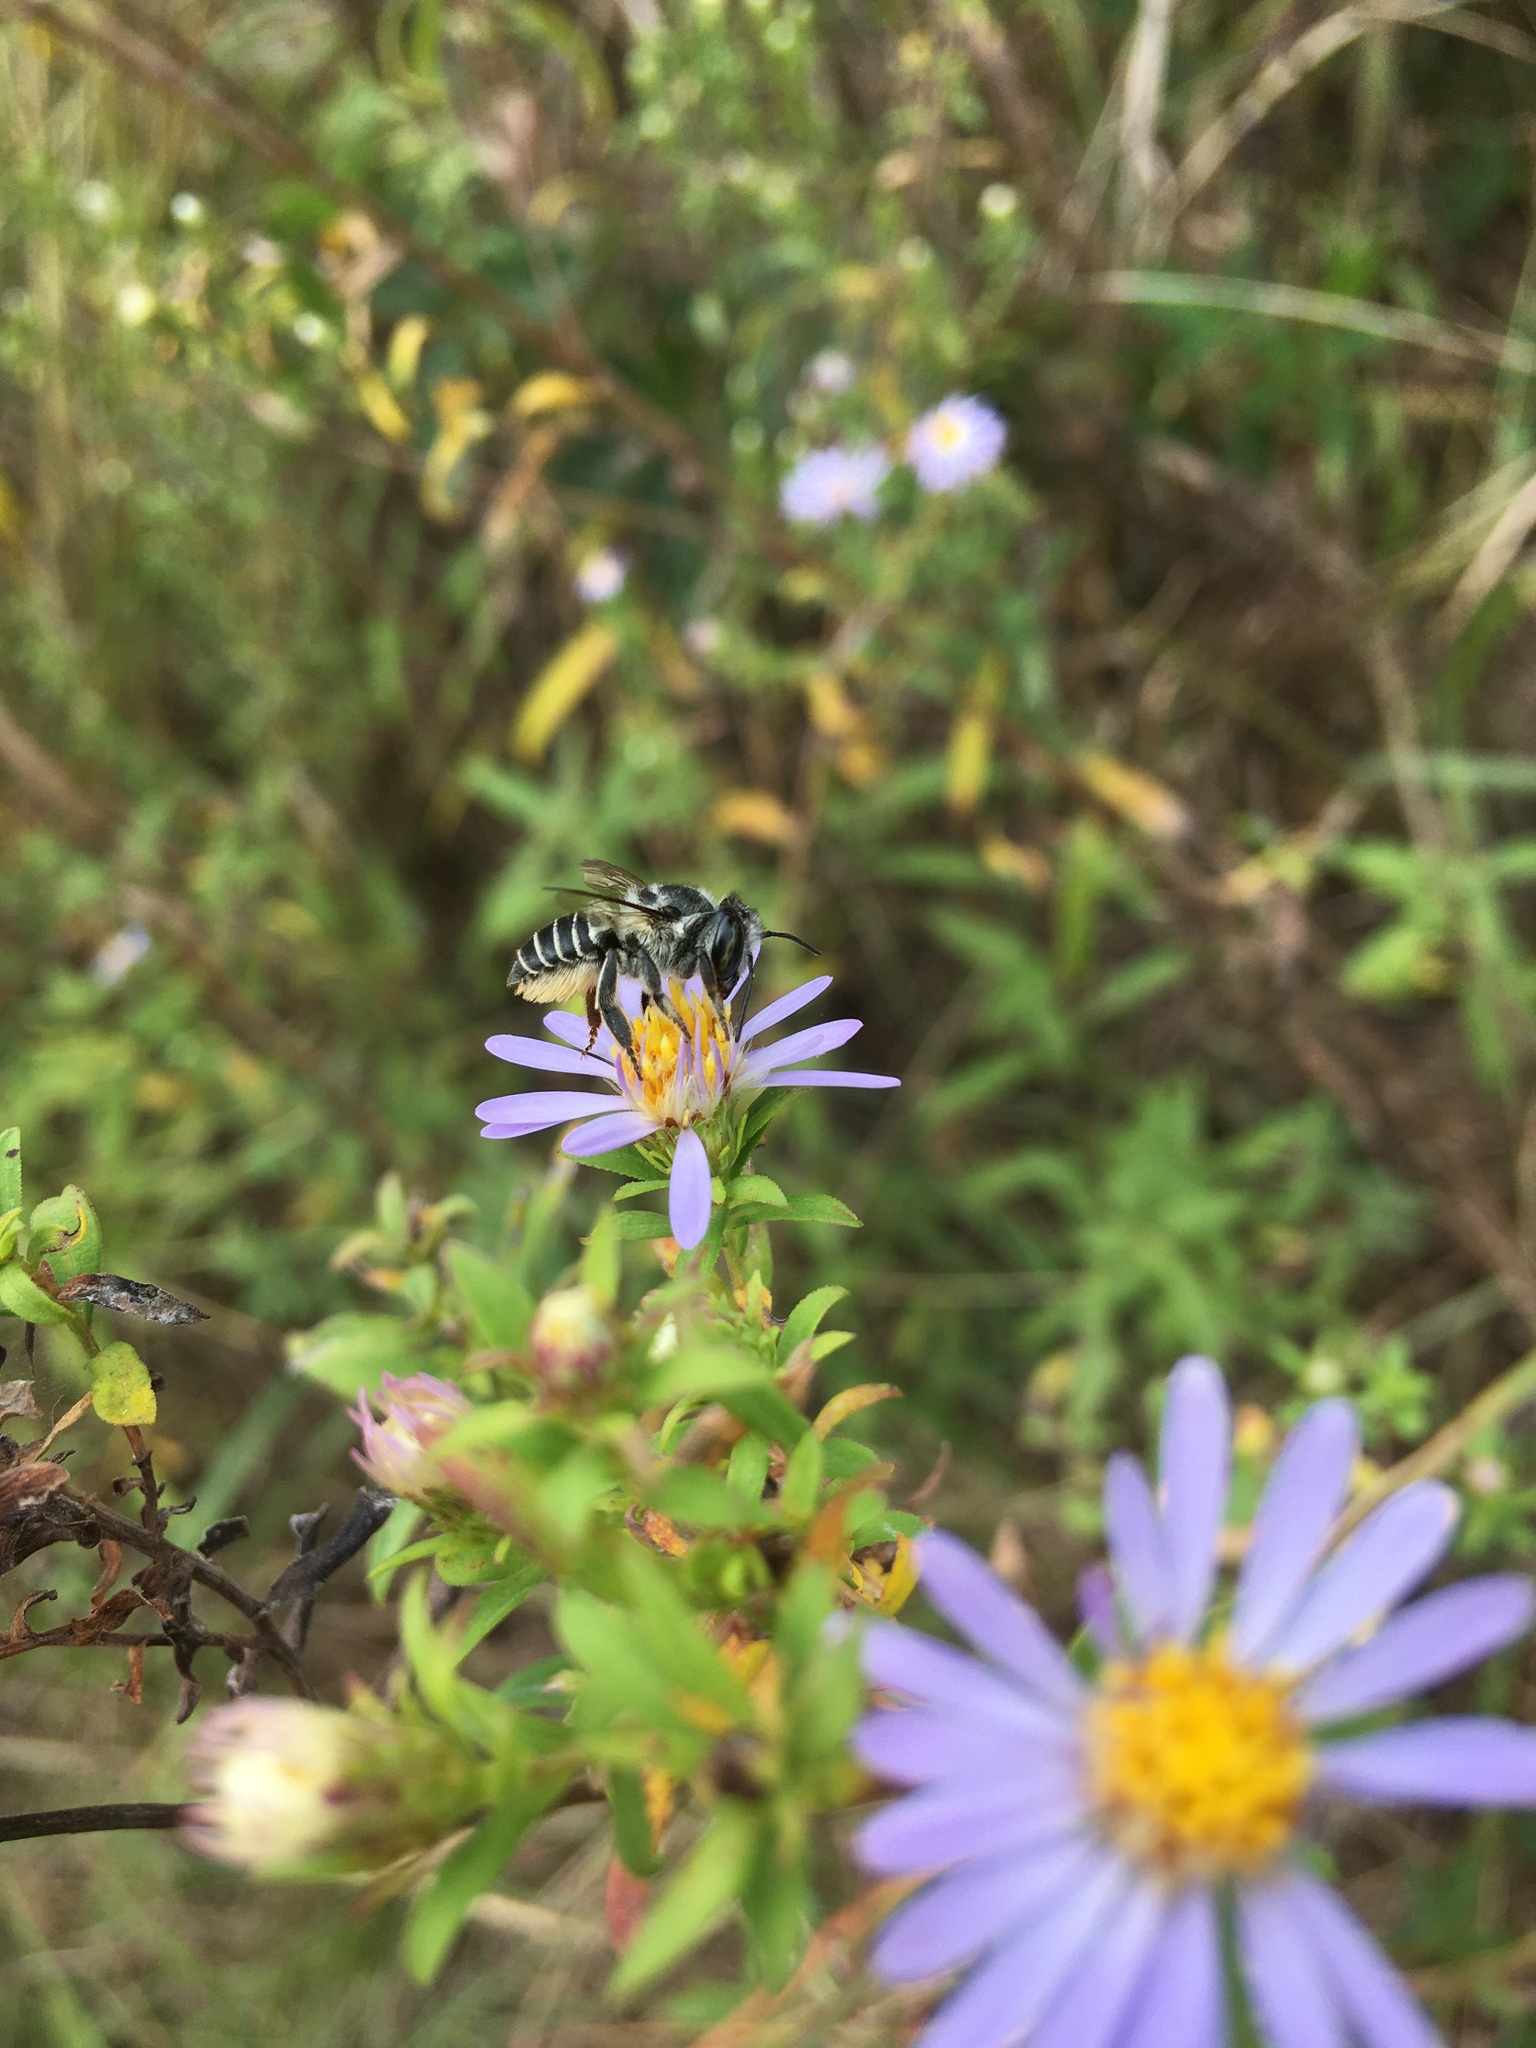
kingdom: Animalia
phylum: Arthropoda
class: Insecta
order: Hymenoptera
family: Megachilidae
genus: Megachile
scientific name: Megachile petulans
